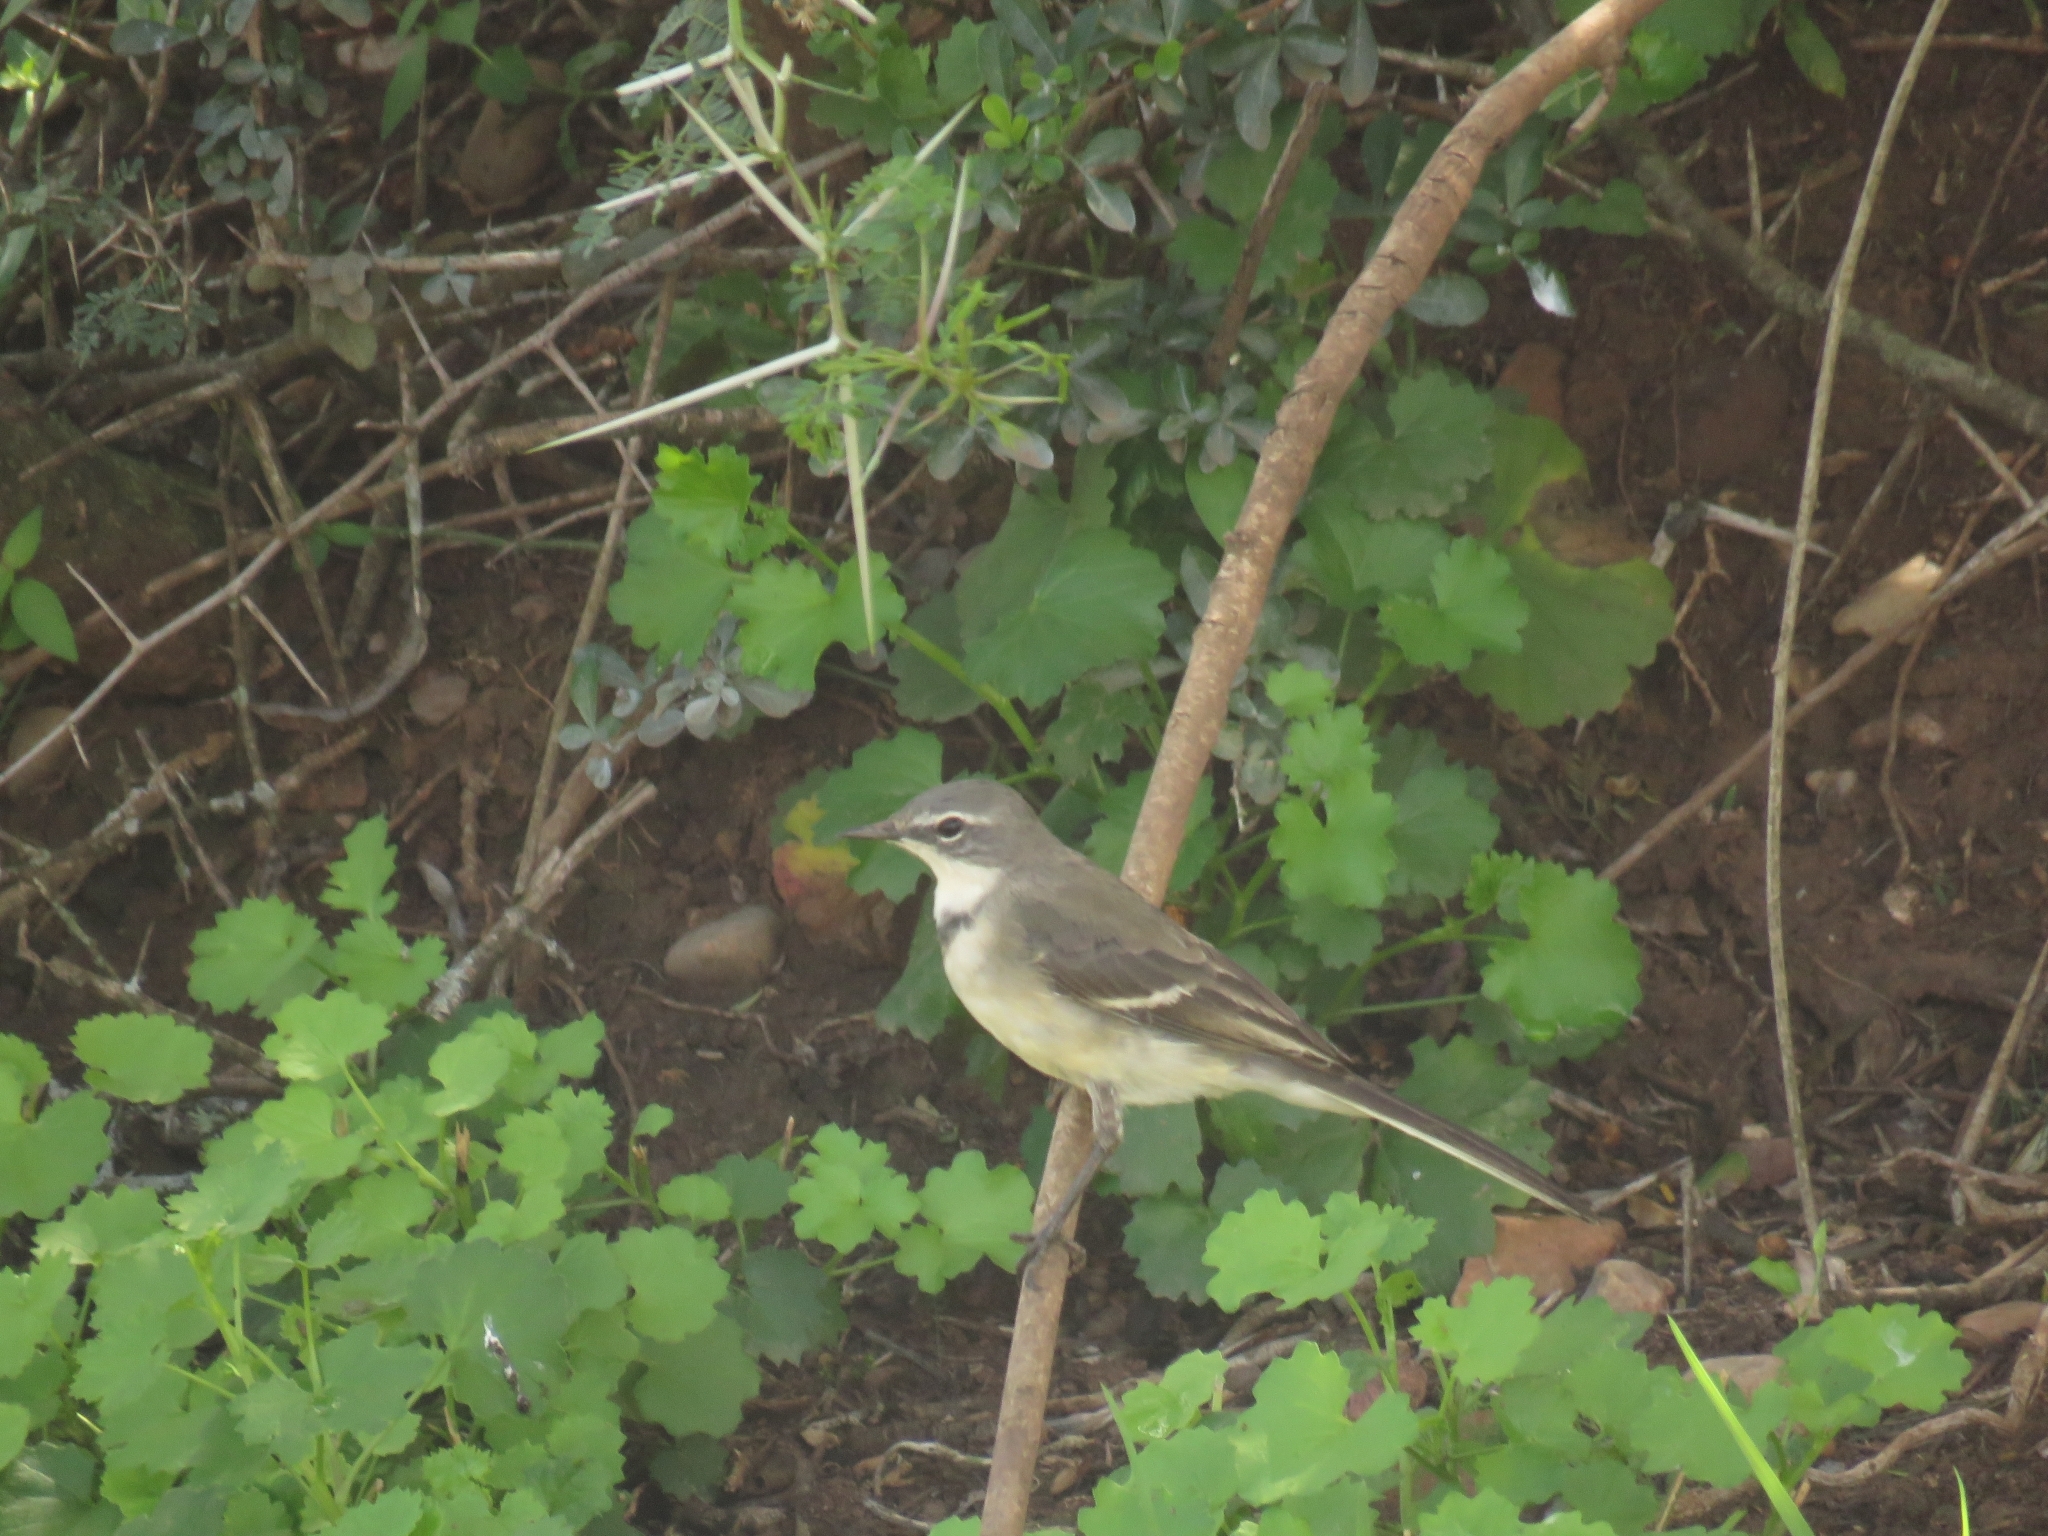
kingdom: Animalia
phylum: Chordata
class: Aves
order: Passeriformes
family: Motacillidae
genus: Motacilla
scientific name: Motacilla capensis
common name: Cape wagtail
